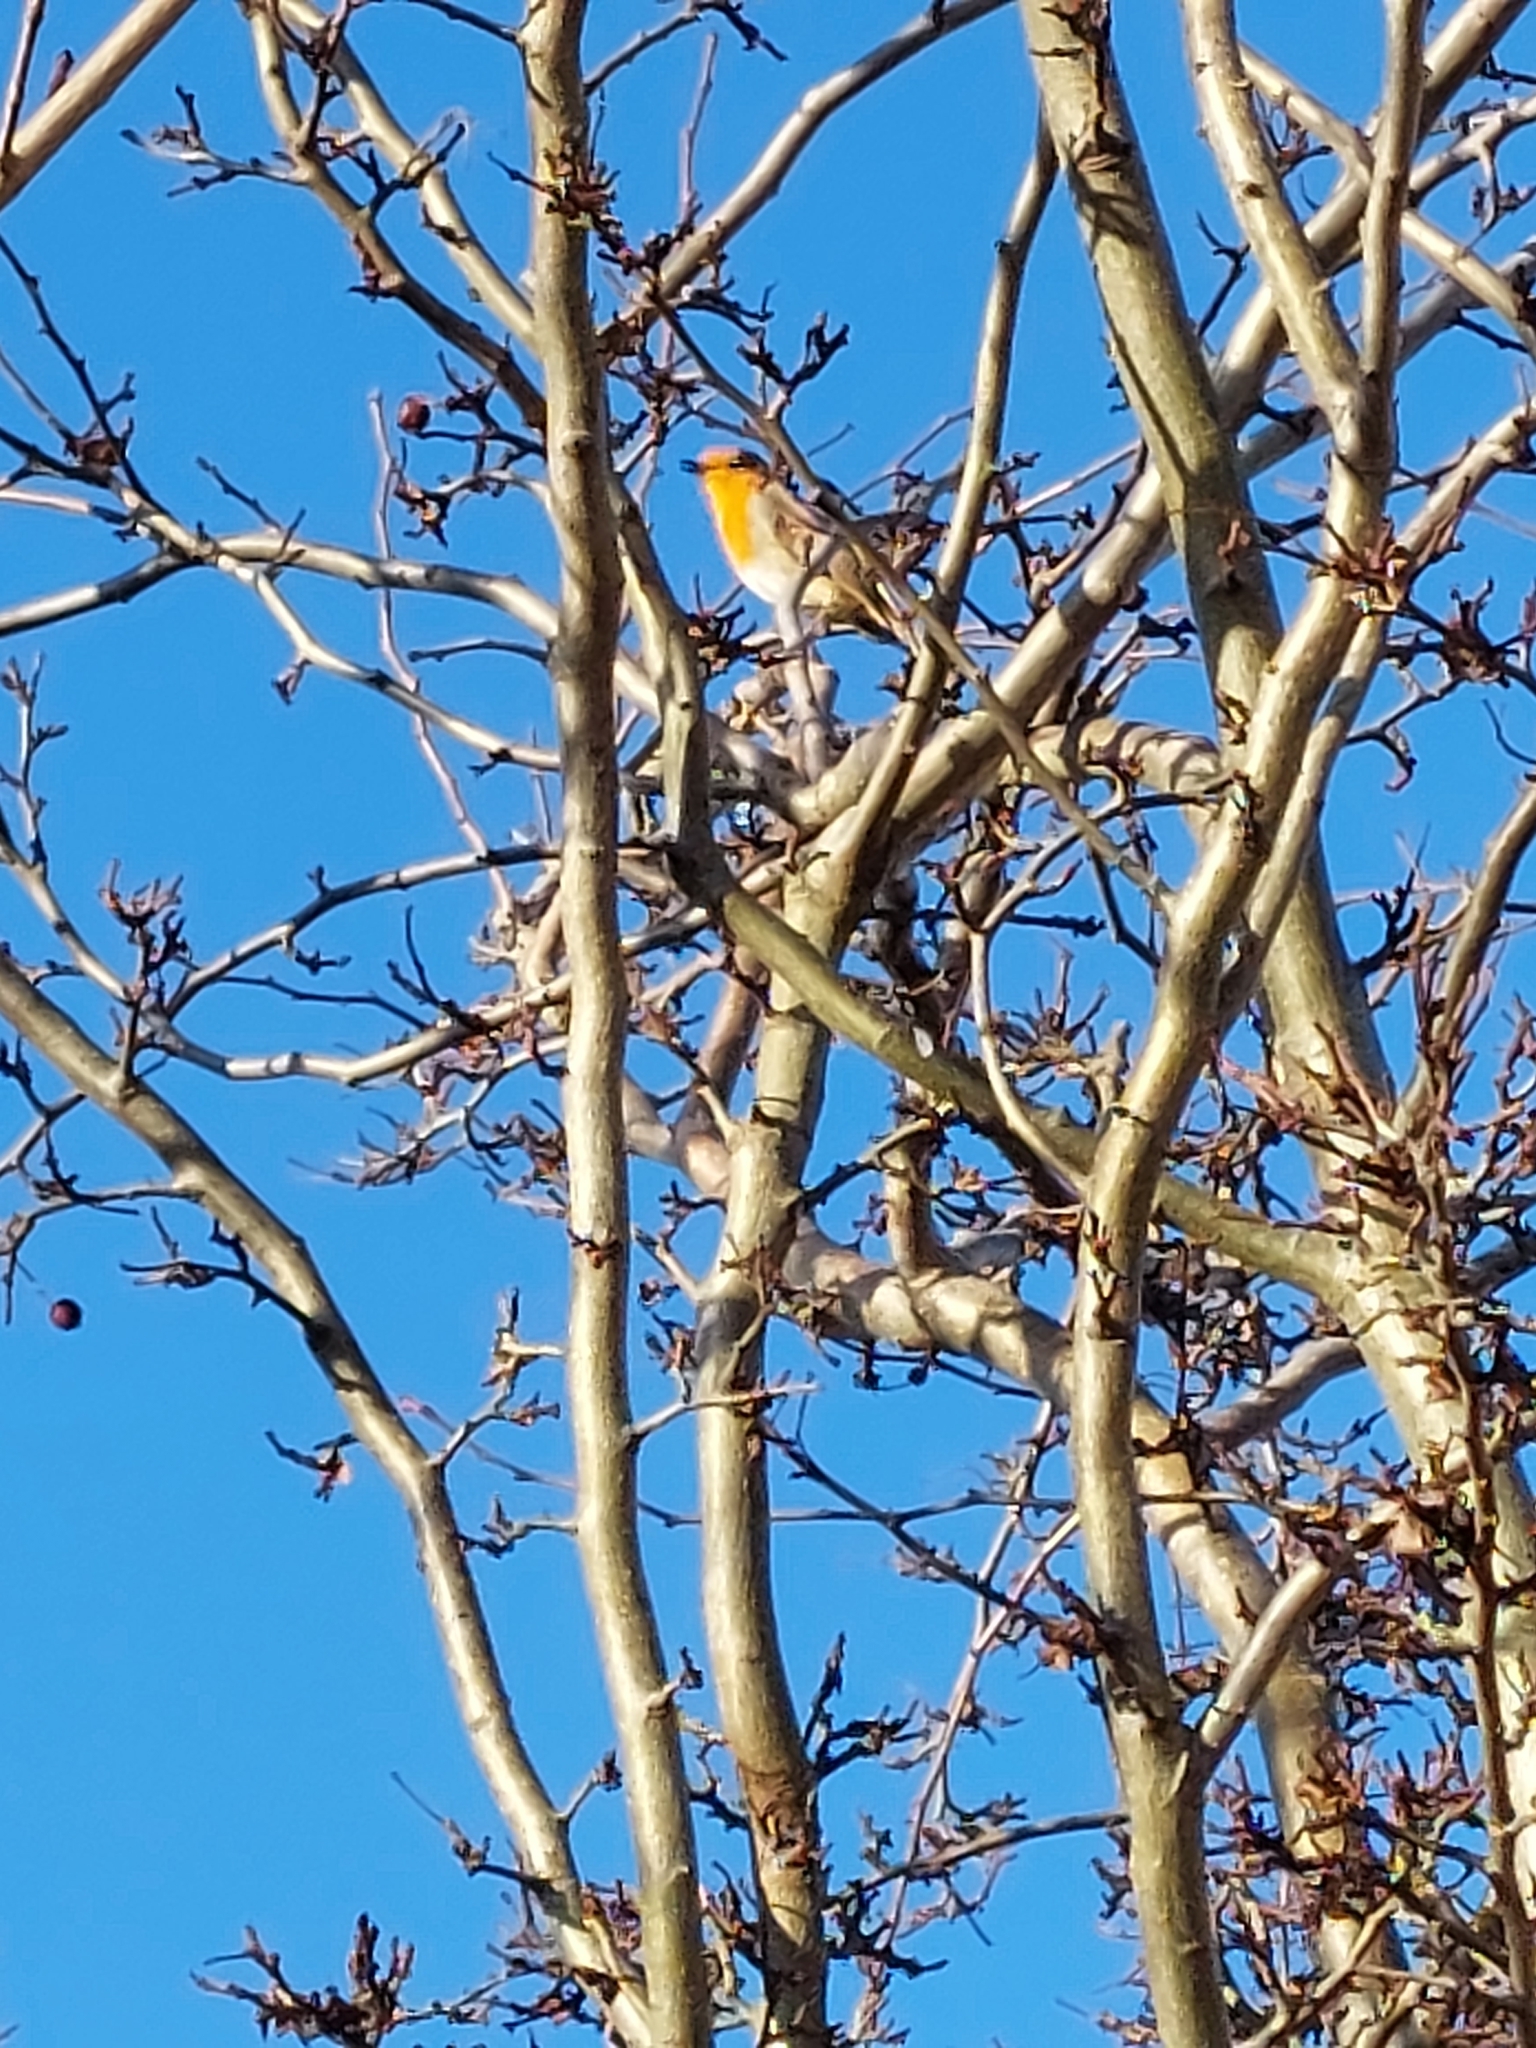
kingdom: Animalia
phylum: Chordata
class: Aves
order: Passeriformes
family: Muscicapidae
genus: Erithacus
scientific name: Erithacus rubecula
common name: European robin
